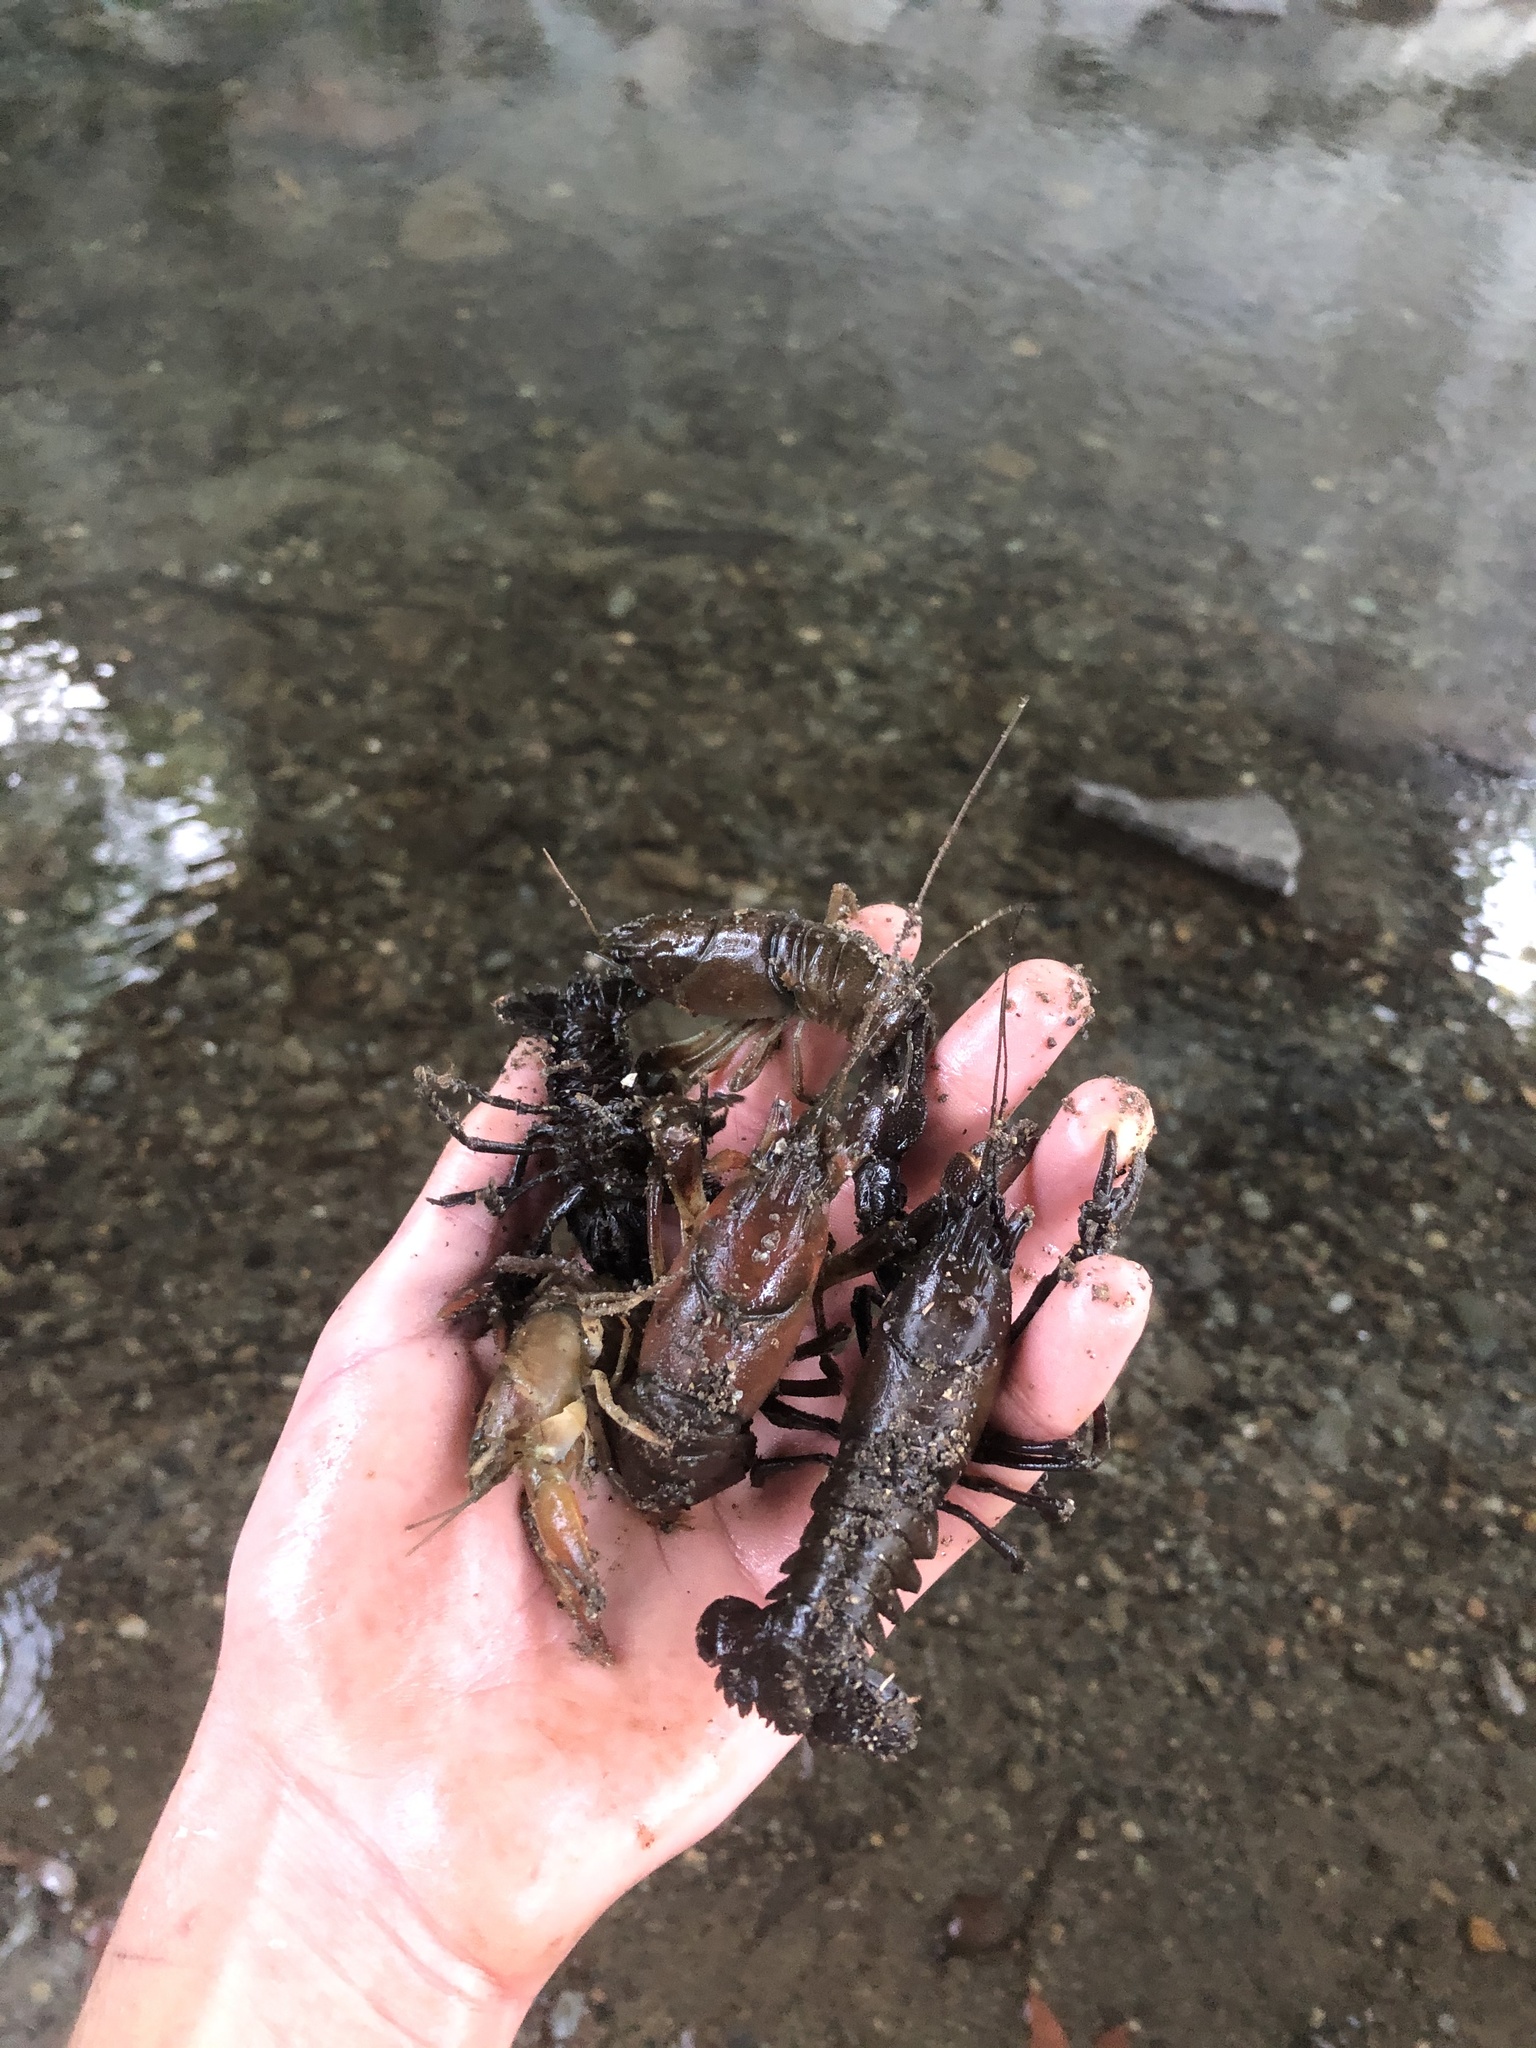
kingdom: Animalia
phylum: Arthropoda
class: Malacostraca
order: Decapoda
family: Astacidae
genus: Pacifastacus
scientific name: Pacifastacus leniusculus
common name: Signal crayfish
